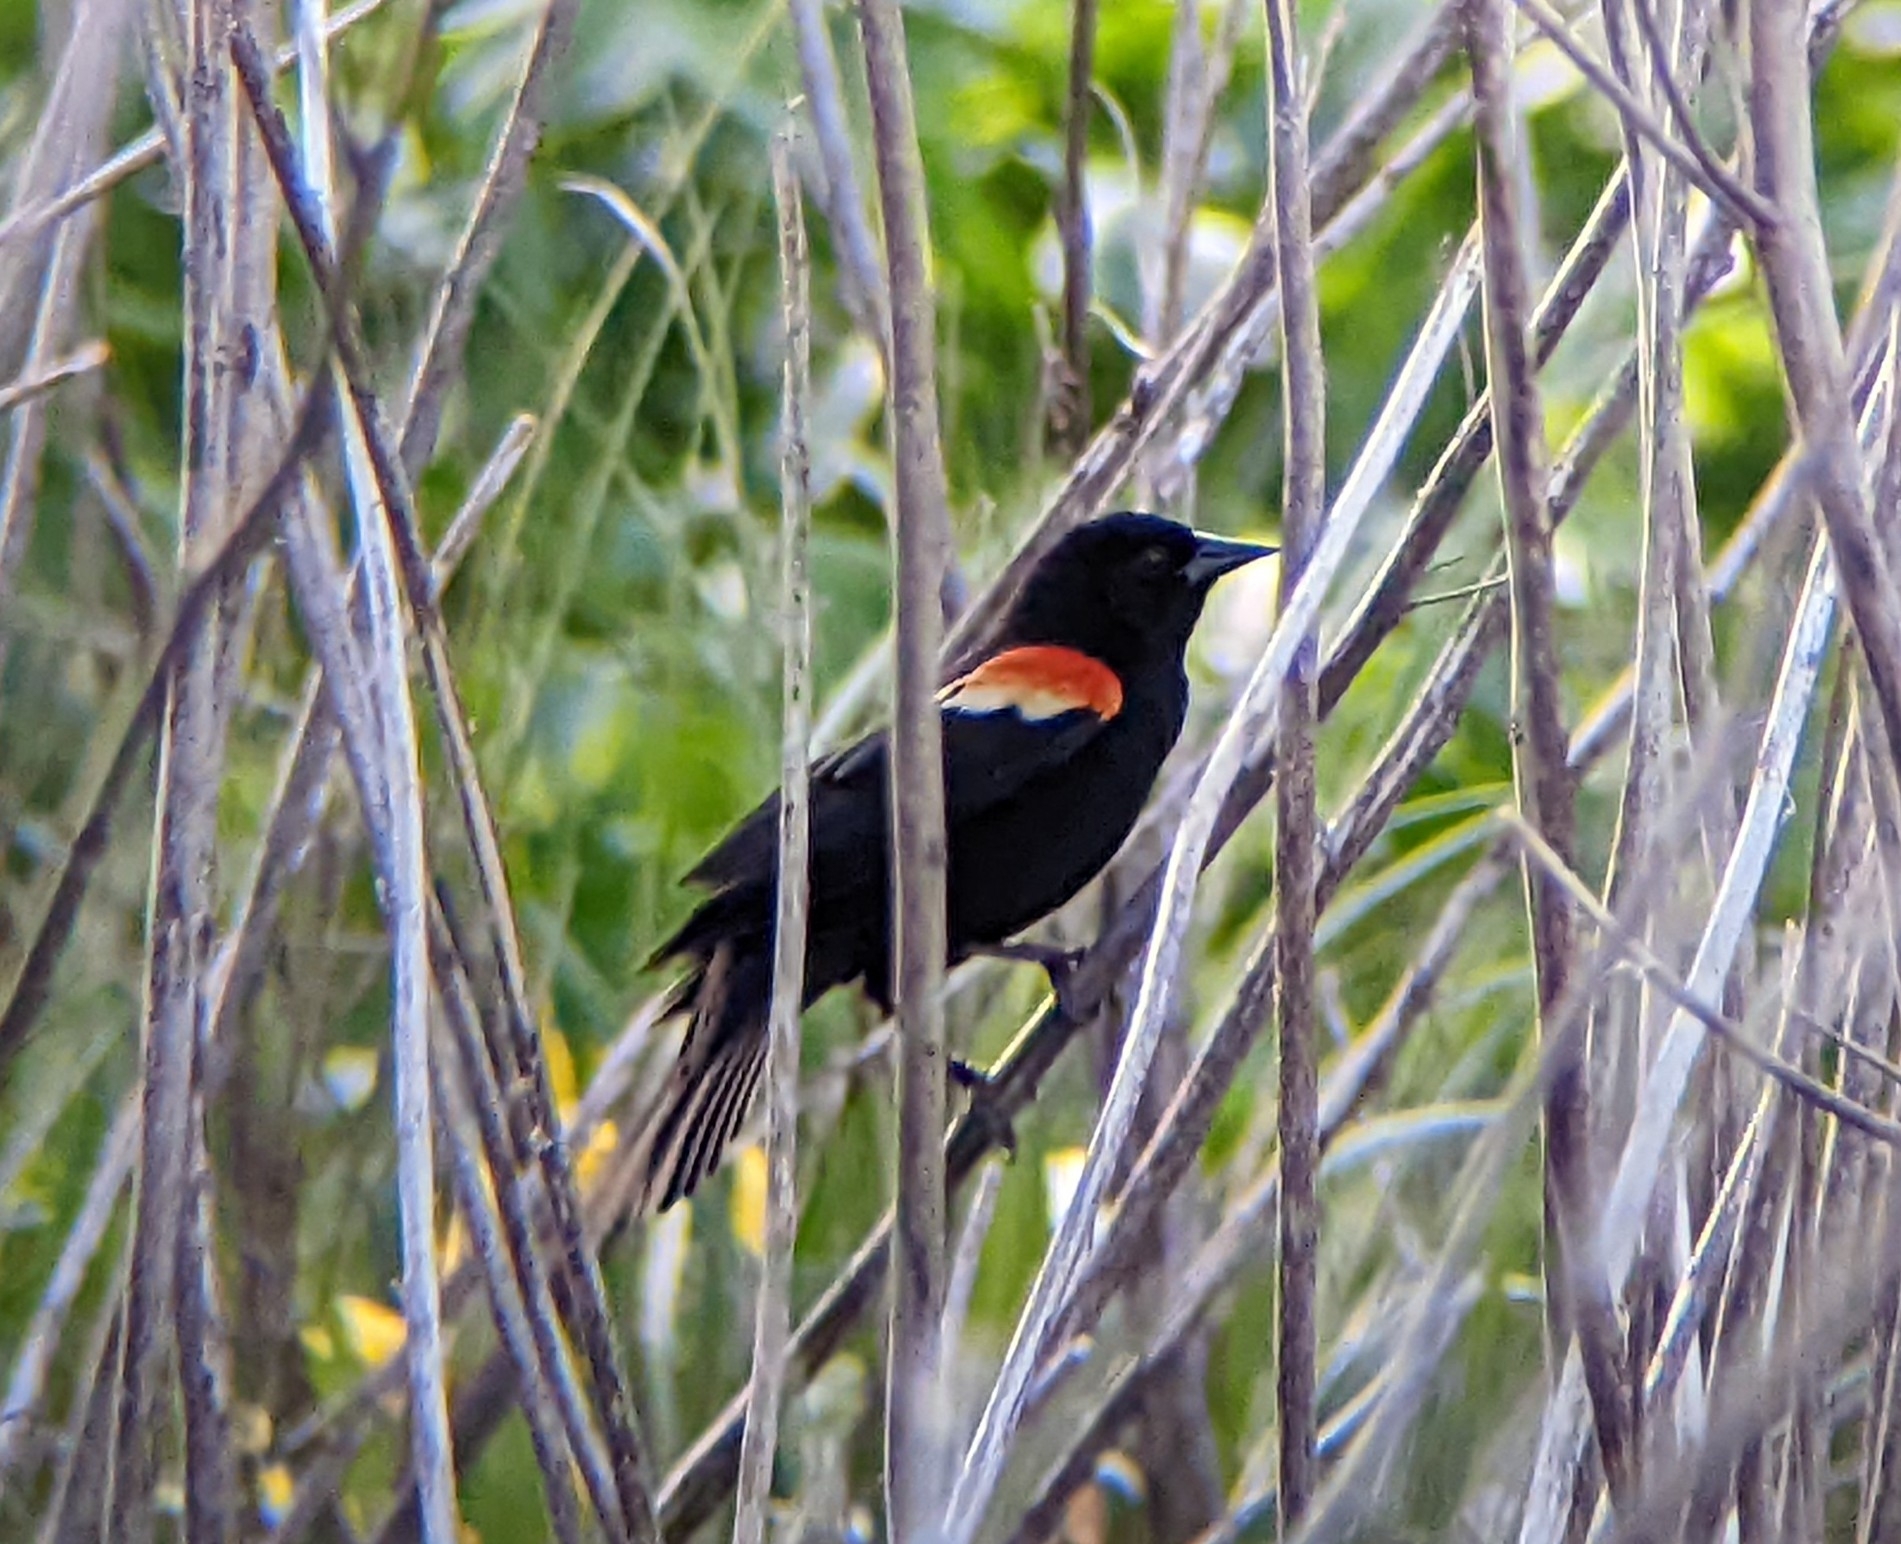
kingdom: Animalia
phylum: Chordata
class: Aves
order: Passeriformes
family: Icteridae
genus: Agelaius
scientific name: Agelaius phoeniceus
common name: Red-winged blackbird
